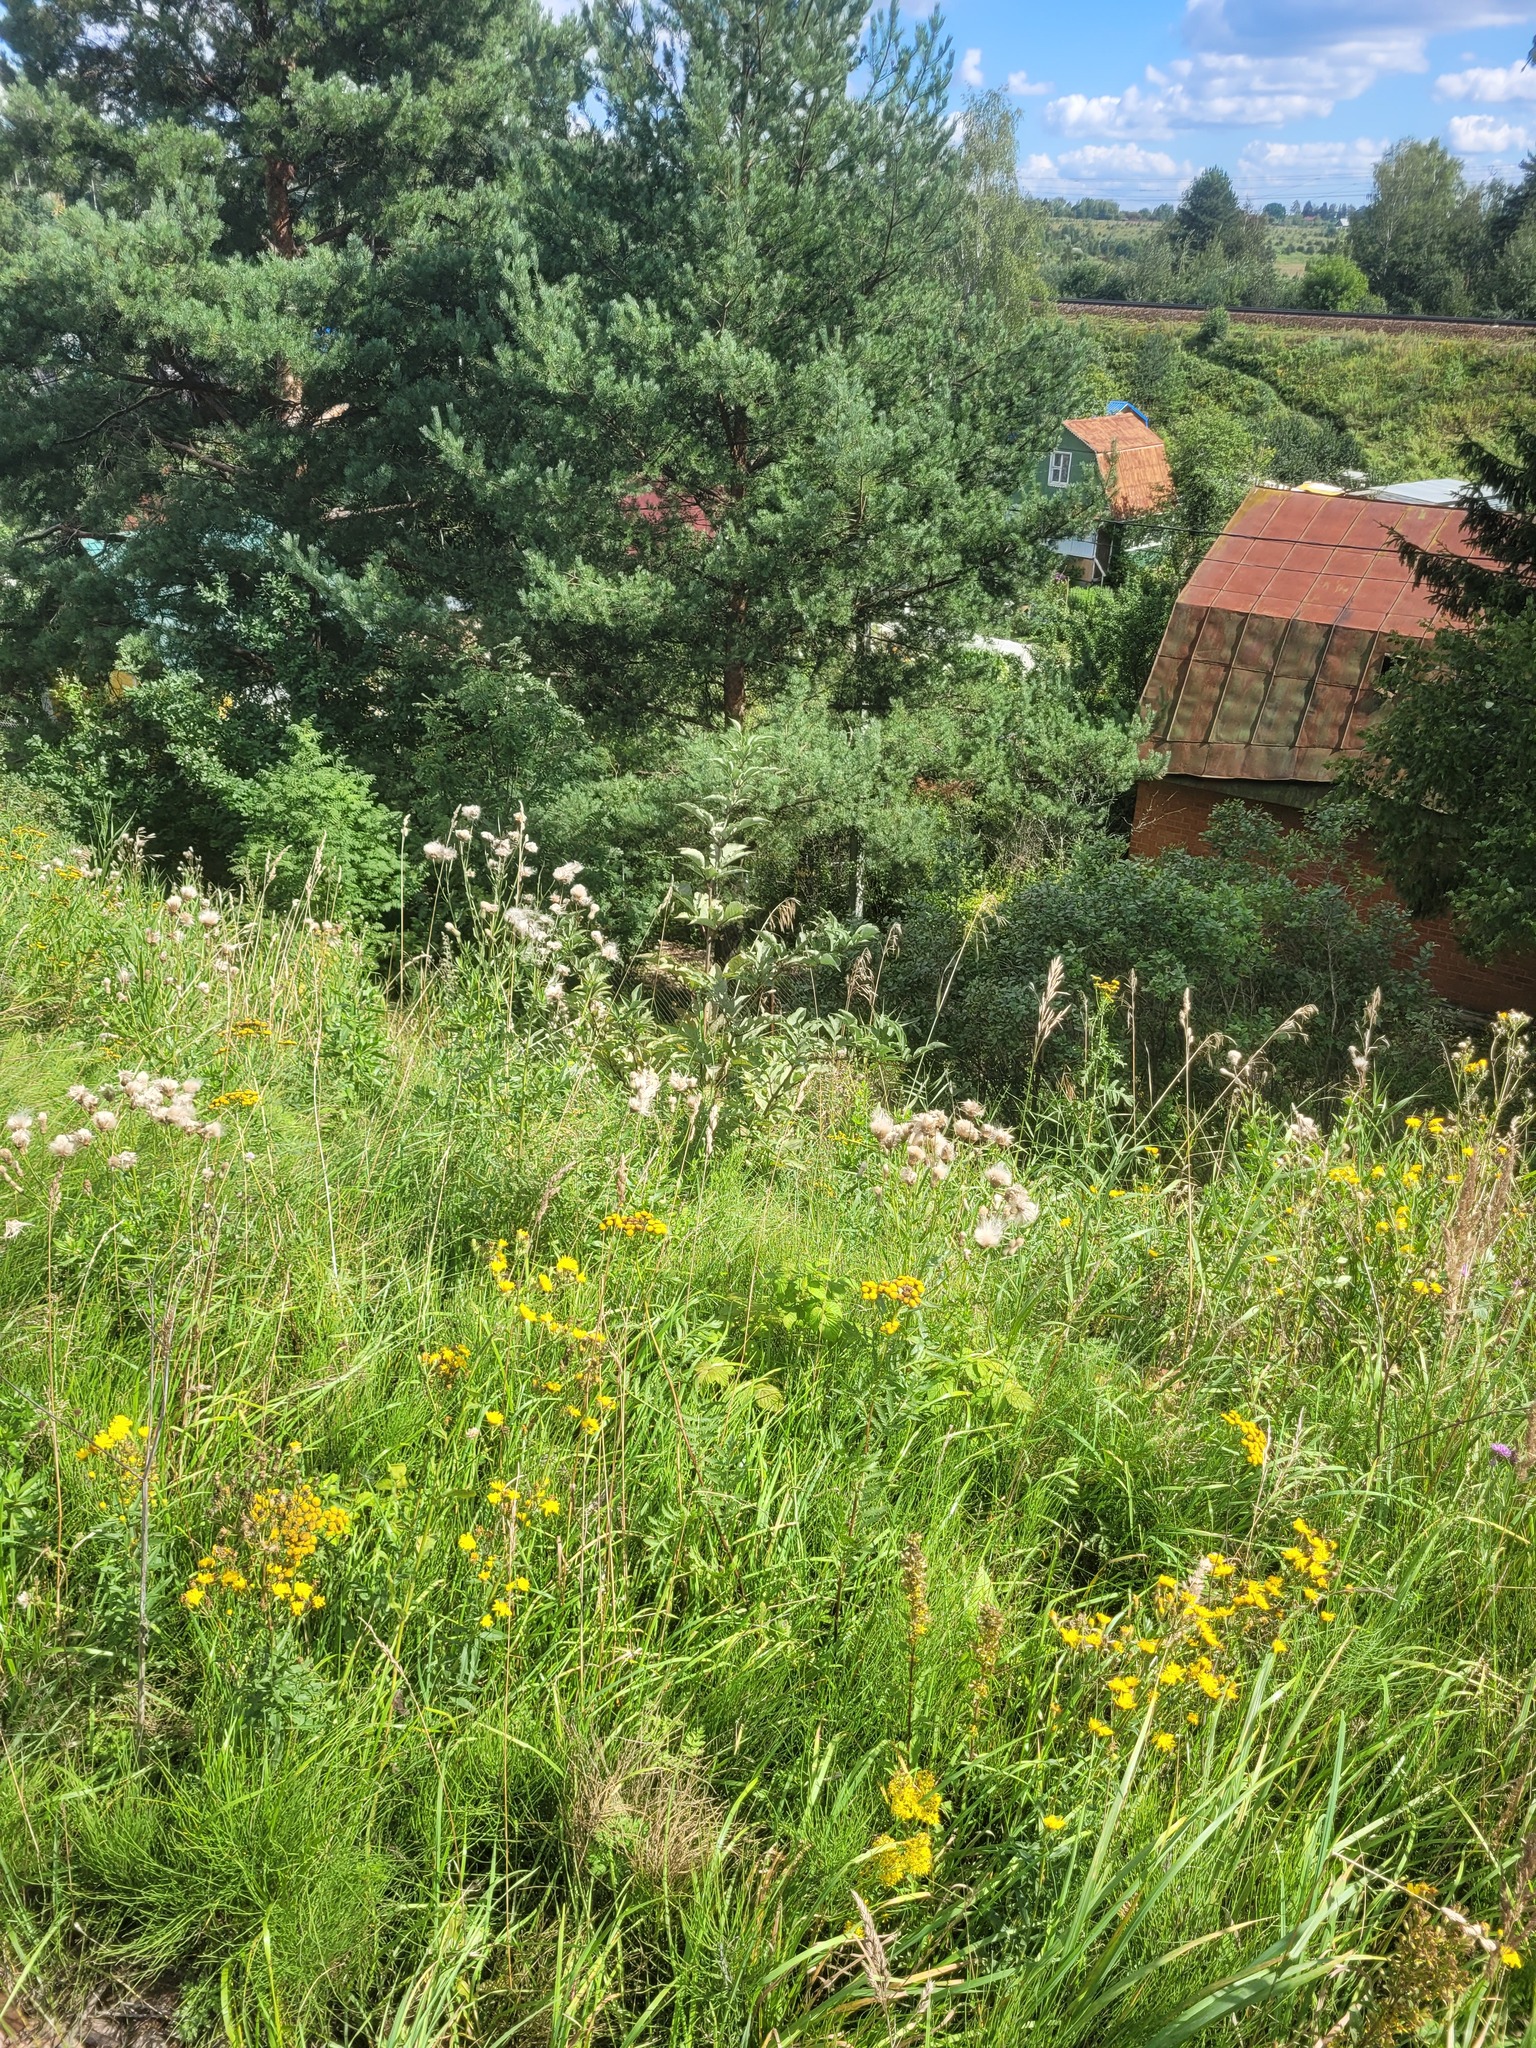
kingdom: Plantae
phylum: Tracheophyta
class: Magnoliopsida
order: Dipsacales
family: Viburnaceae
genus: Sambucus
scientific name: Sambucus racemosa
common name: Red-berried elder
